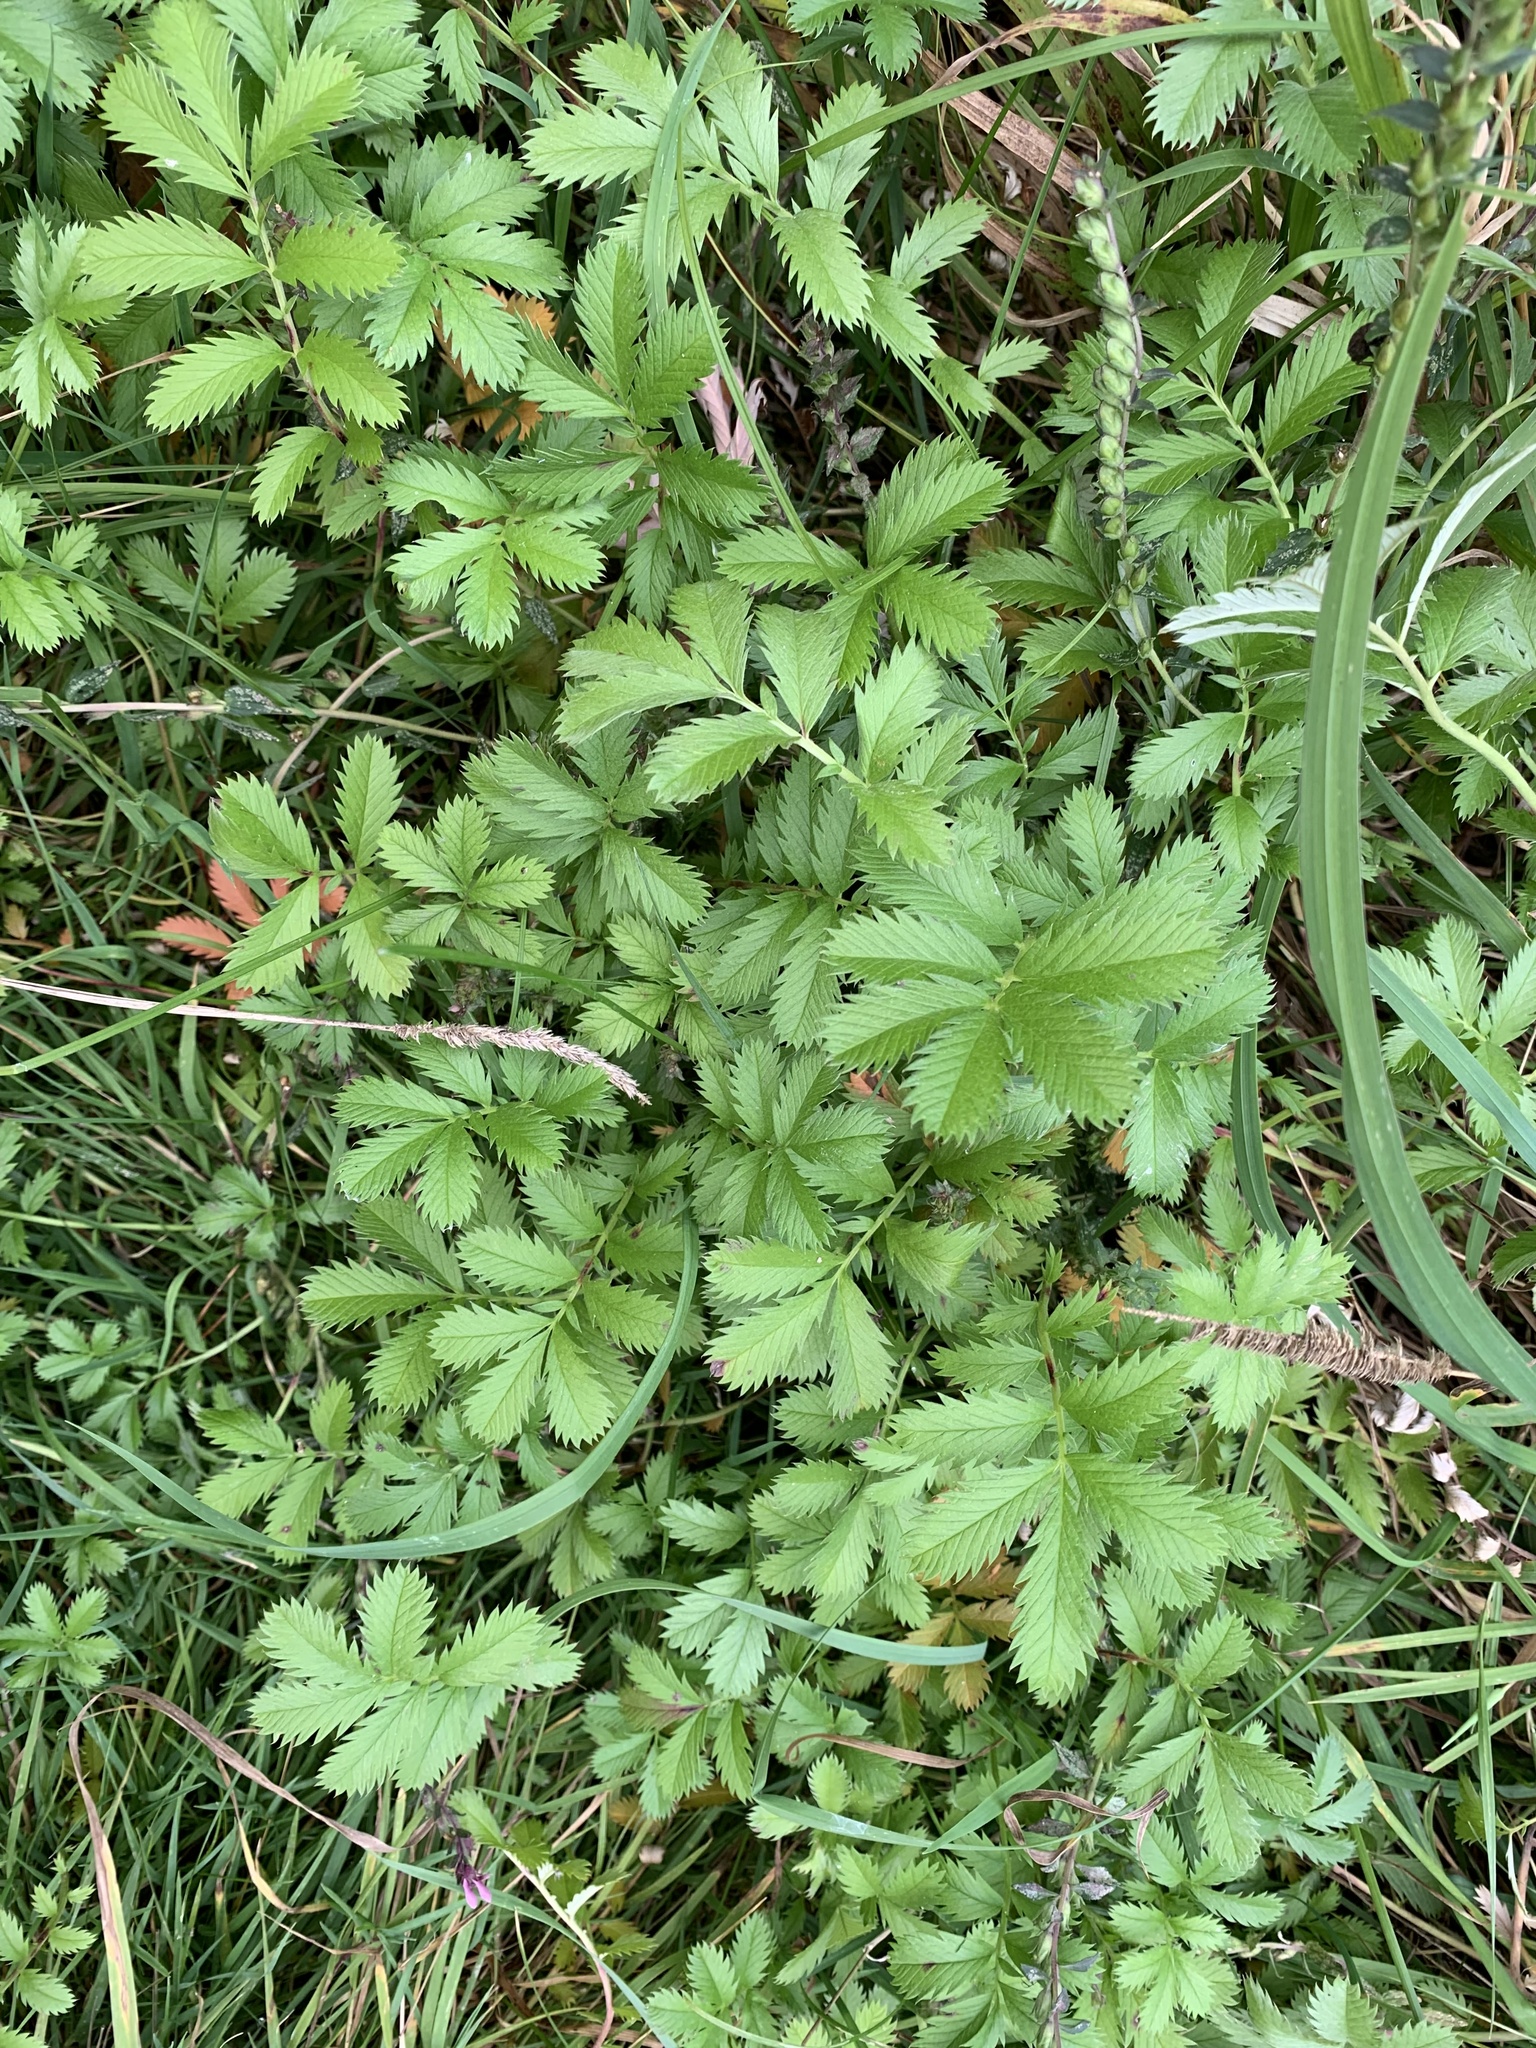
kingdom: Plantae
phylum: Tracheophyta
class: Magnoliopsida
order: Rosales
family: Rosaceae
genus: Argentina
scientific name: Argentina anserina
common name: Common silverweed
